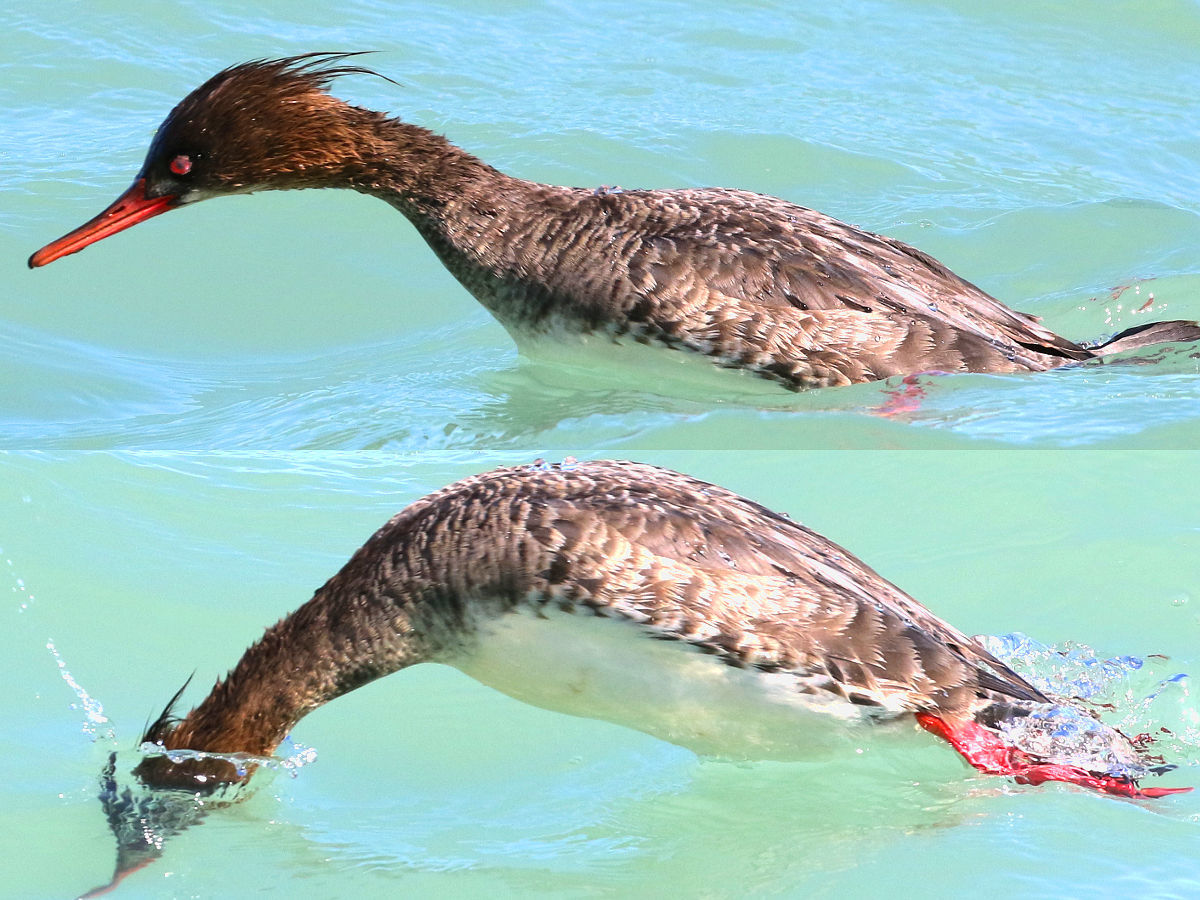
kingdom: Animalia
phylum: Chordata
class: Aves
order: Anseriformes
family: Anatidae
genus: Mergus
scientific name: Mergus serrator
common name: Red-breasted merganser
